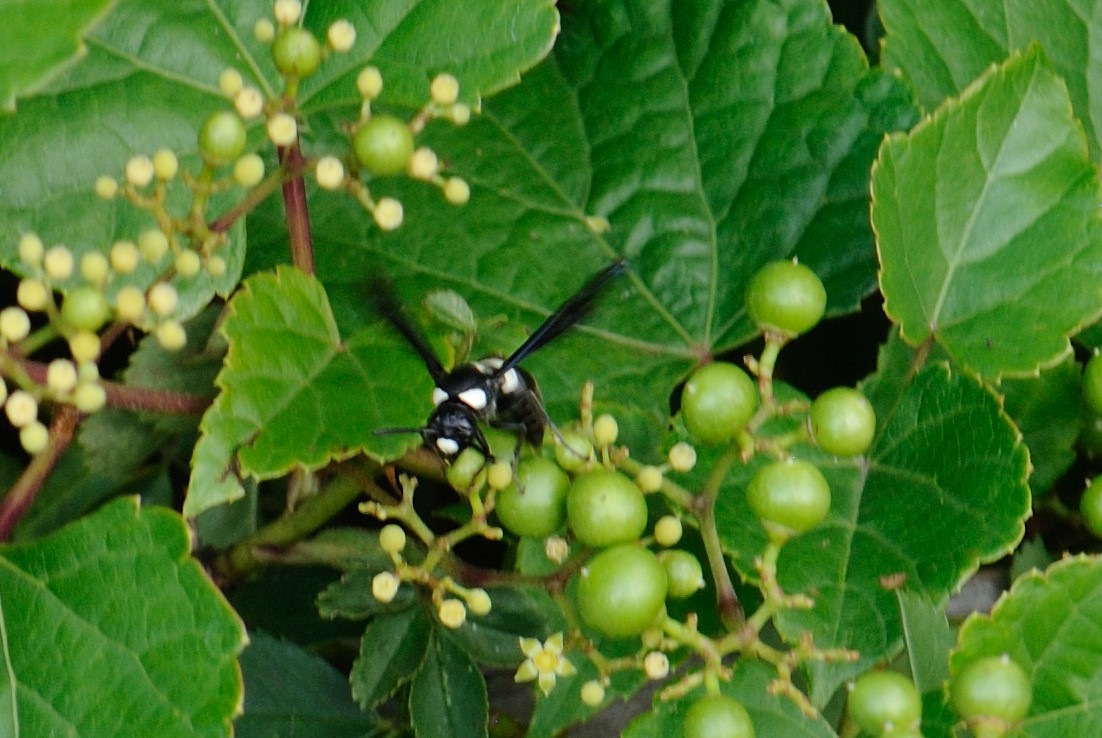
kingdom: Animalia
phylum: Arthropoda
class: Insecta
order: Hymenoptera
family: Eumenidae
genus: Monobia
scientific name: Monobia quadridens
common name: Four-toothed mason wasp
